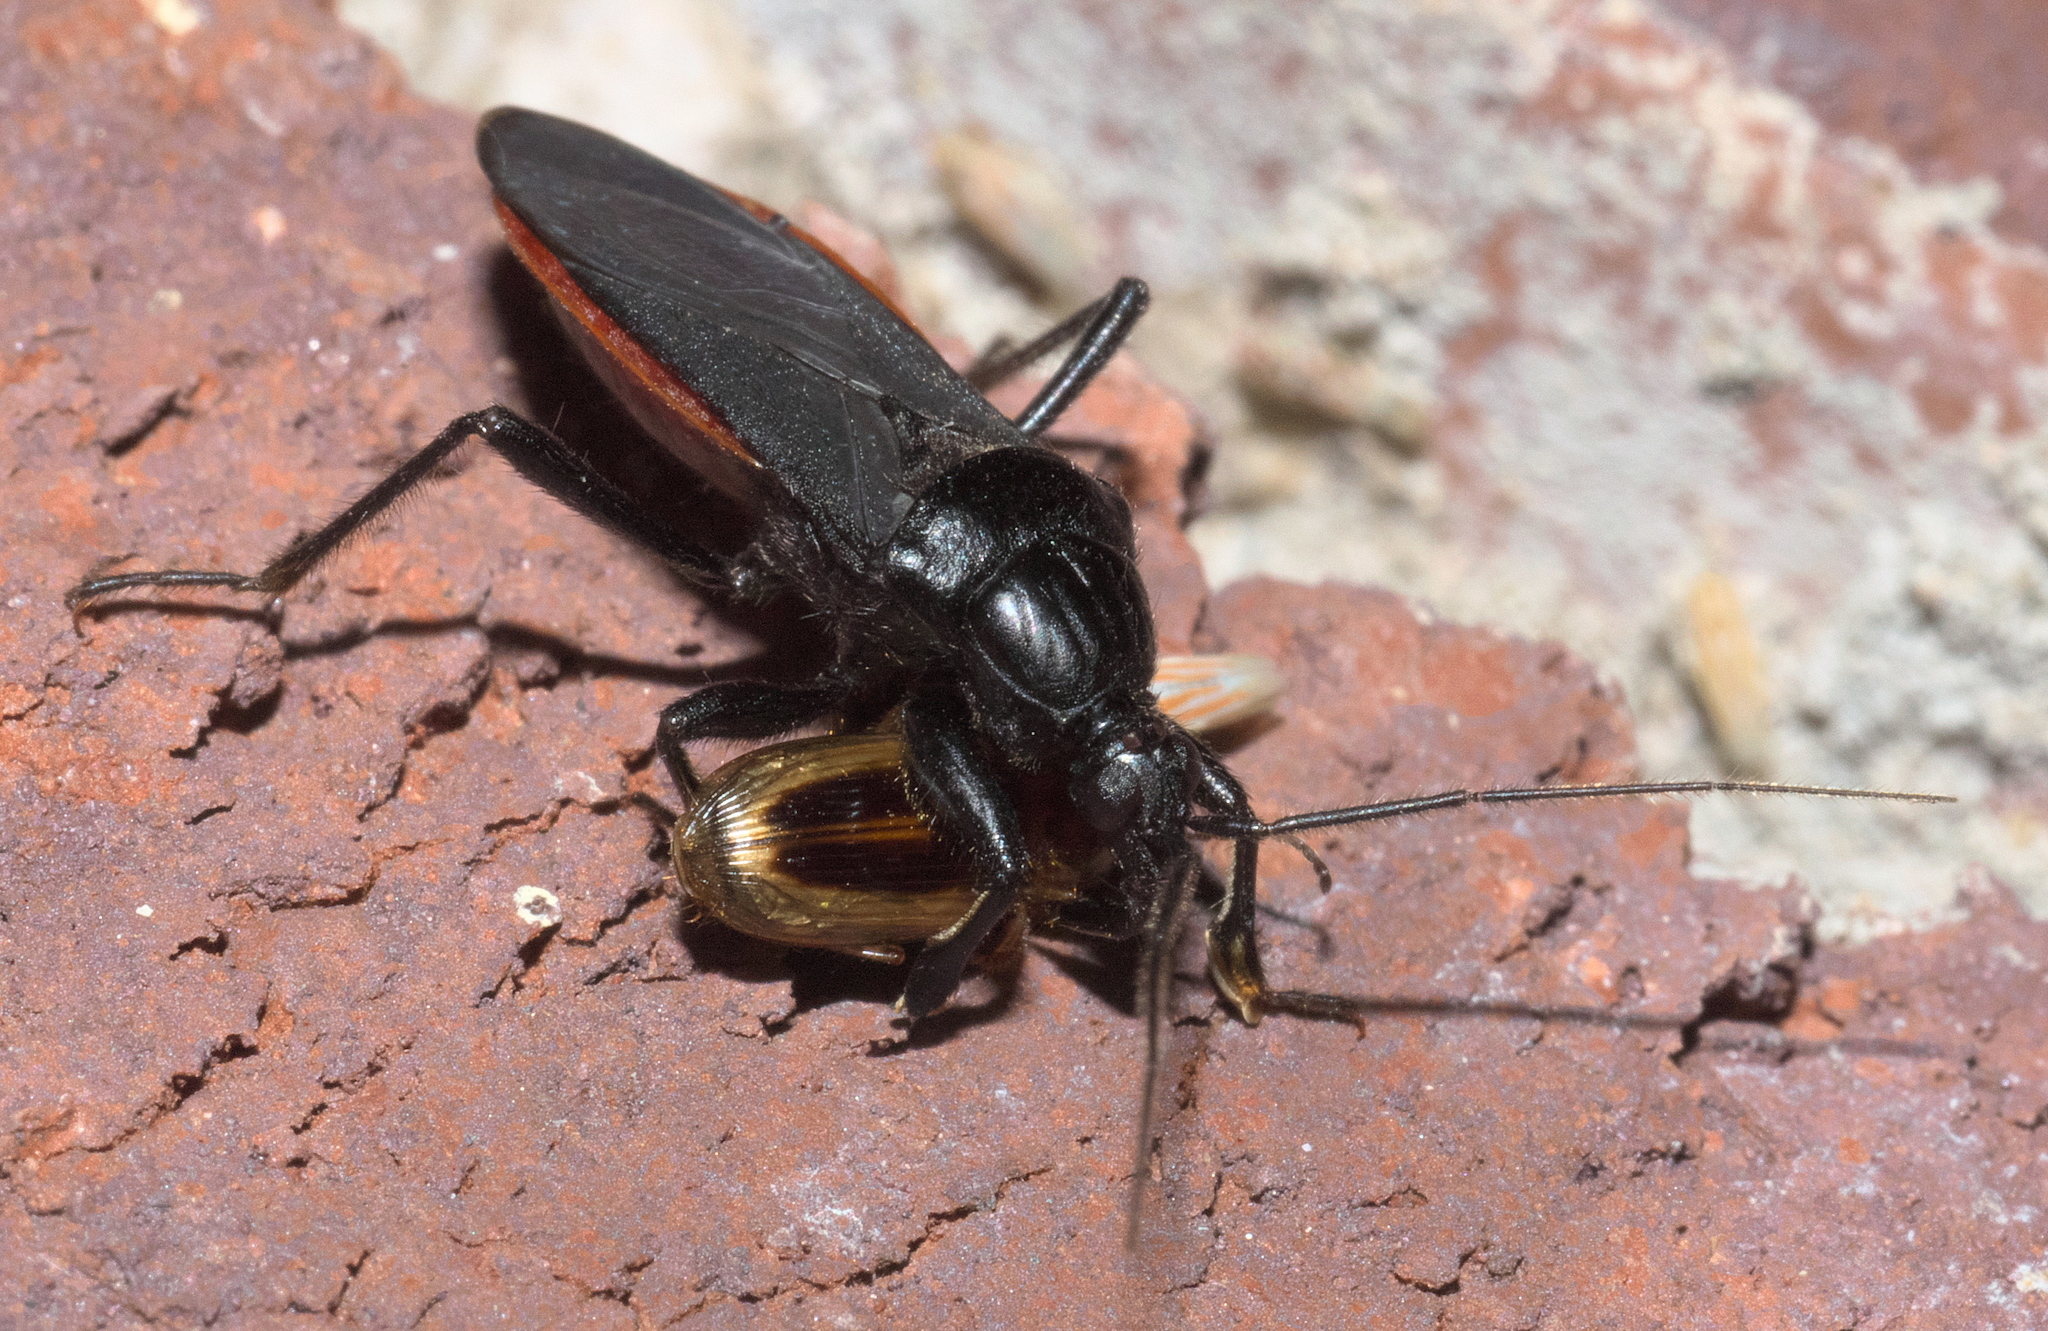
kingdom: Animalia
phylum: Arthropoda
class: Insecta
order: Hemiptera
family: Reduviidae
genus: Melanolestes
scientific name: Melanolestes picipes
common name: Assassin bug
